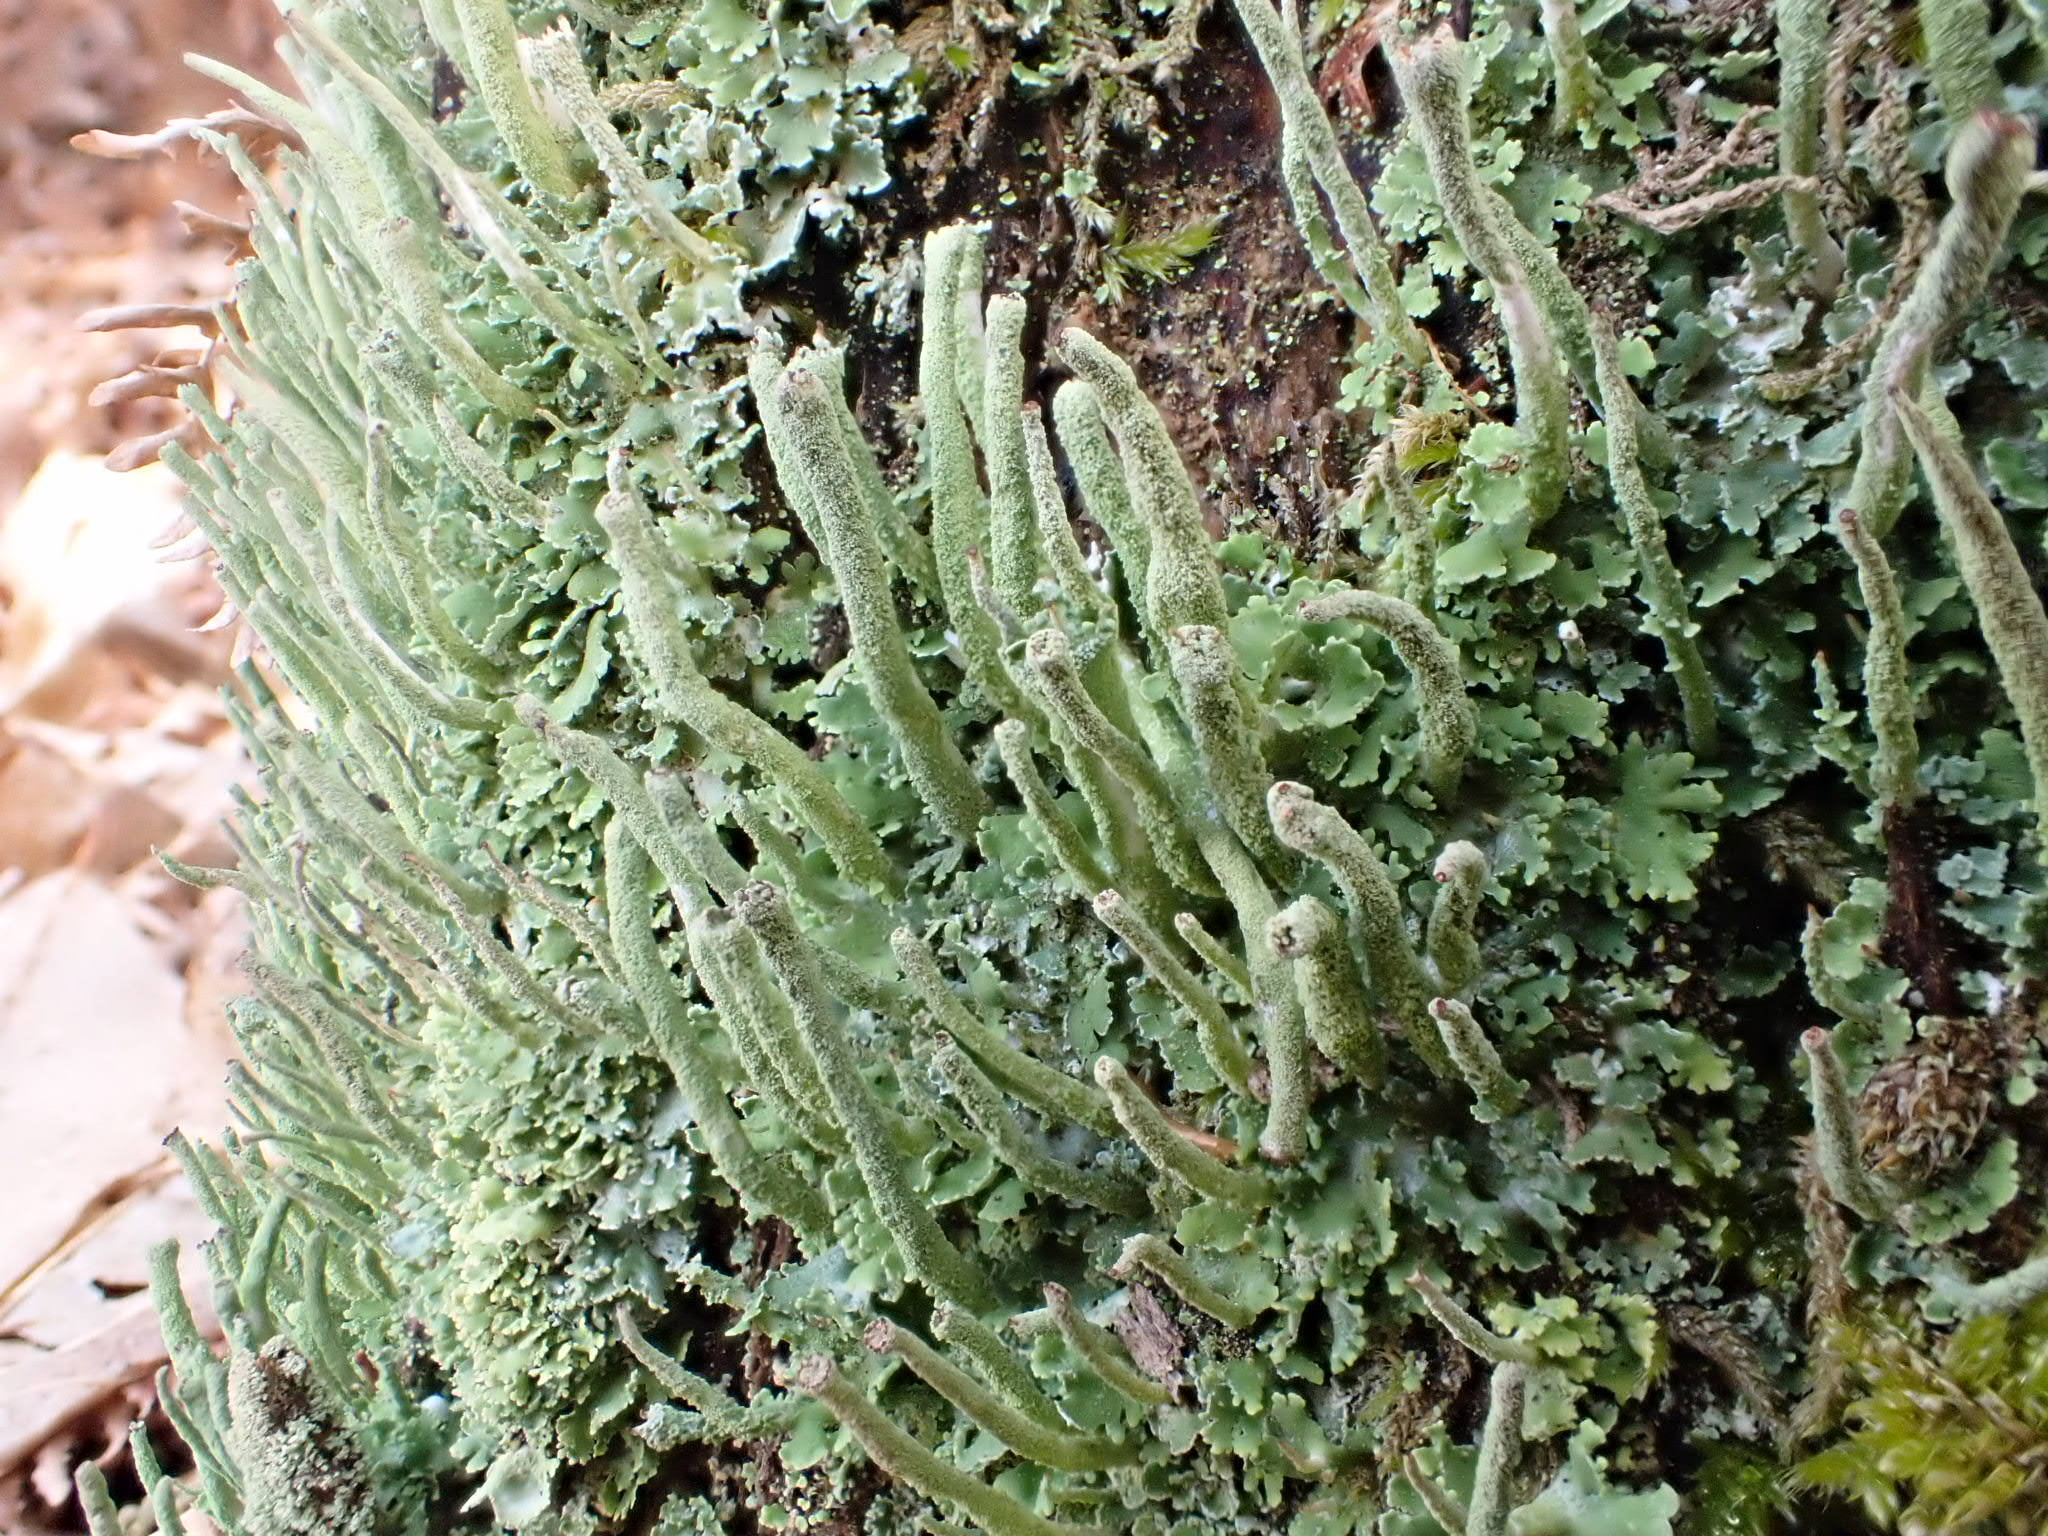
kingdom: Fungi
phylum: Ascomycota
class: Lecanoromycetes
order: Lecanorales
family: Cladoniaceae
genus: Cladonia
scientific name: Cladonia coniocraea
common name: Common powderhorn
